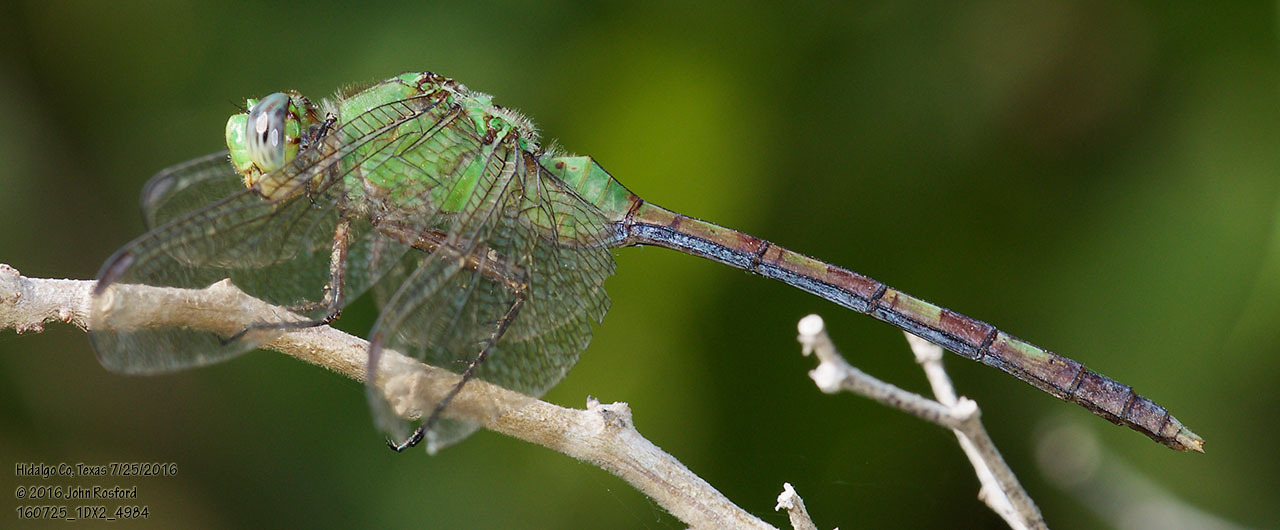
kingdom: Animalia
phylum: Arthropoda
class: Insecta
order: Odonata
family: Libellulidae
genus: Erythemis
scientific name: Erythemis vesiculosa
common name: Great pondhawk
